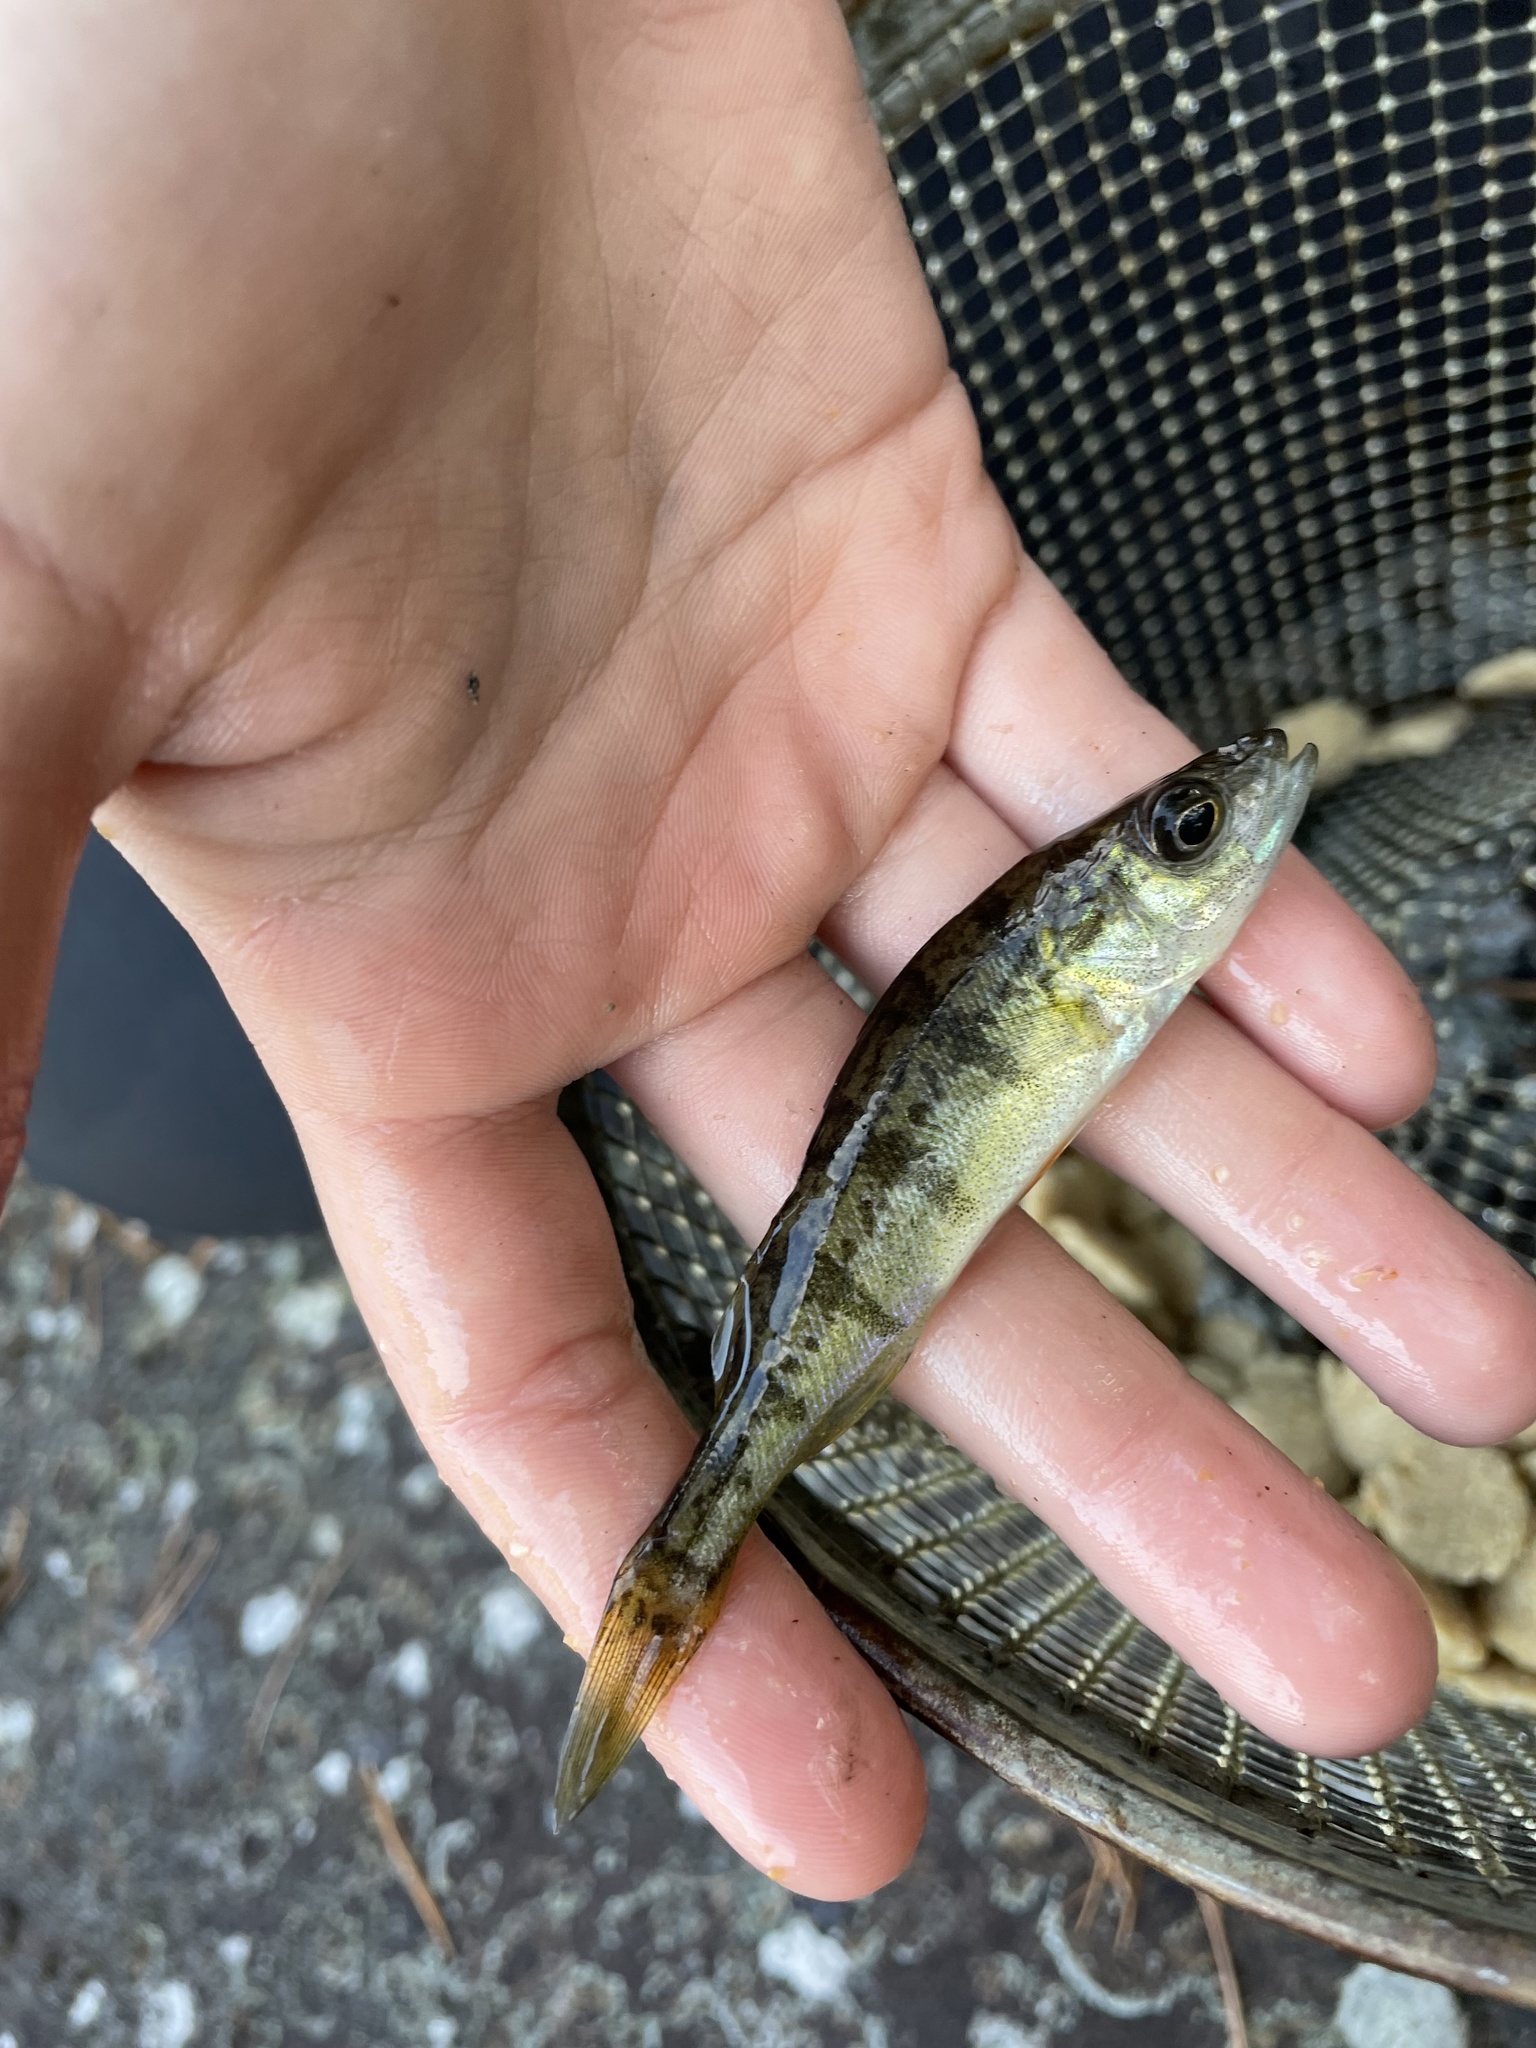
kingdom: Animalia
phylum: Chordata
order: Perciformes
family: Percidae
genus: Perca
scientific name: Perca flavescens
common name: Yellow perch
